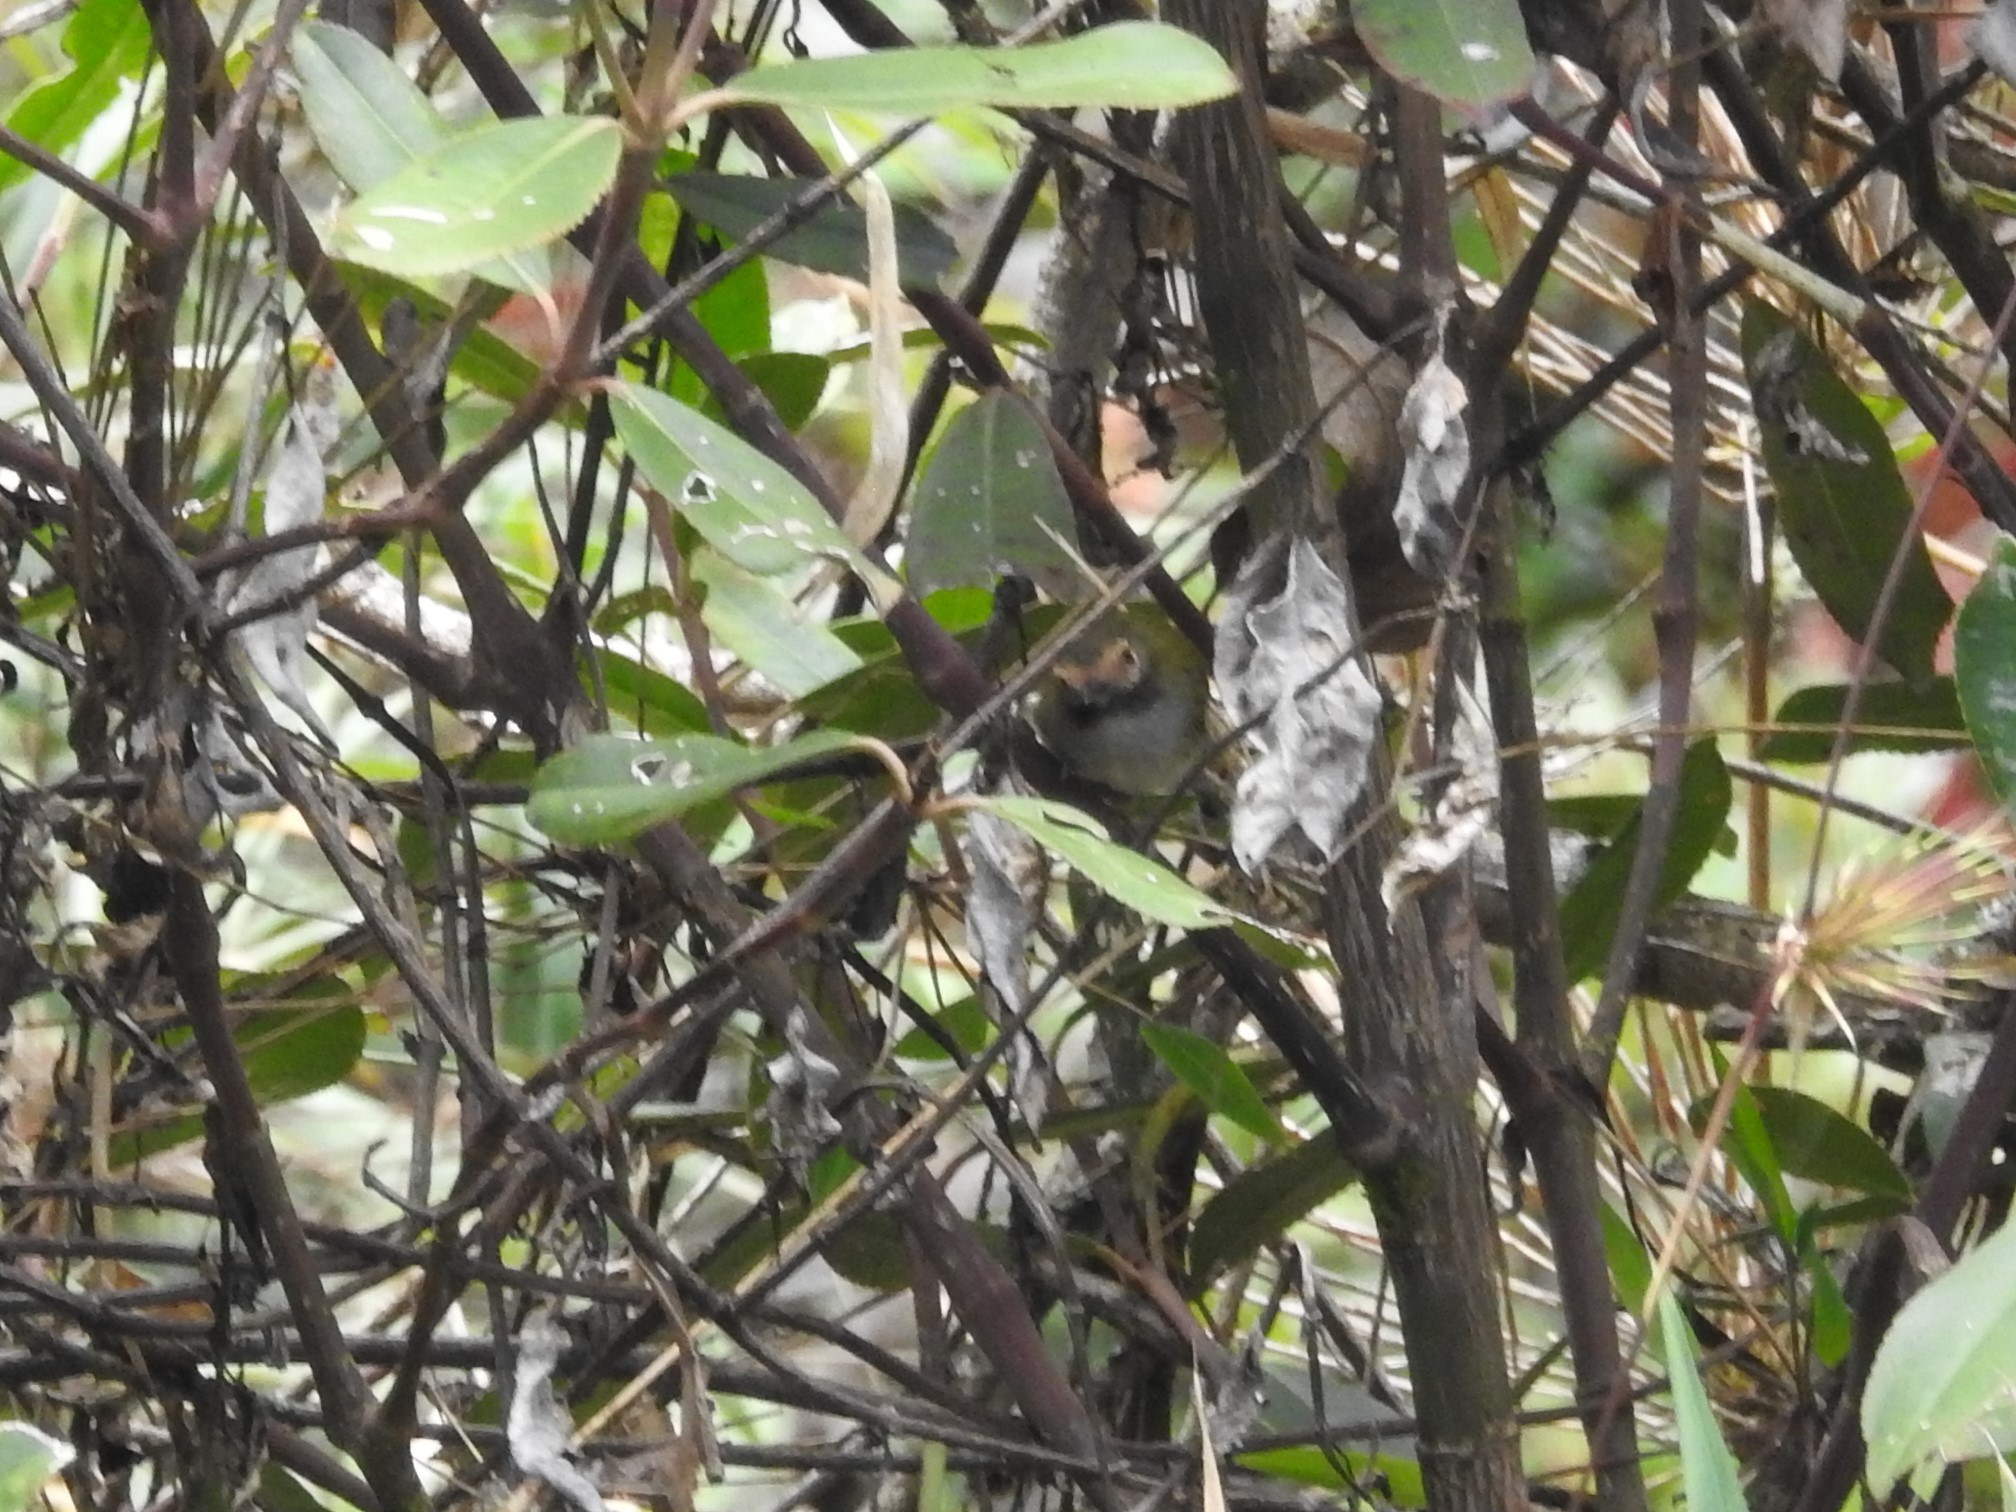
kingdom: Animalia
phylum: Chordata
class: Aves
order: Passeriformes
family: Tyrannidae
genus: Hemitriccus
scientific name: Hemitriccus granadensis
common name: Black-throated tody-tyrant
